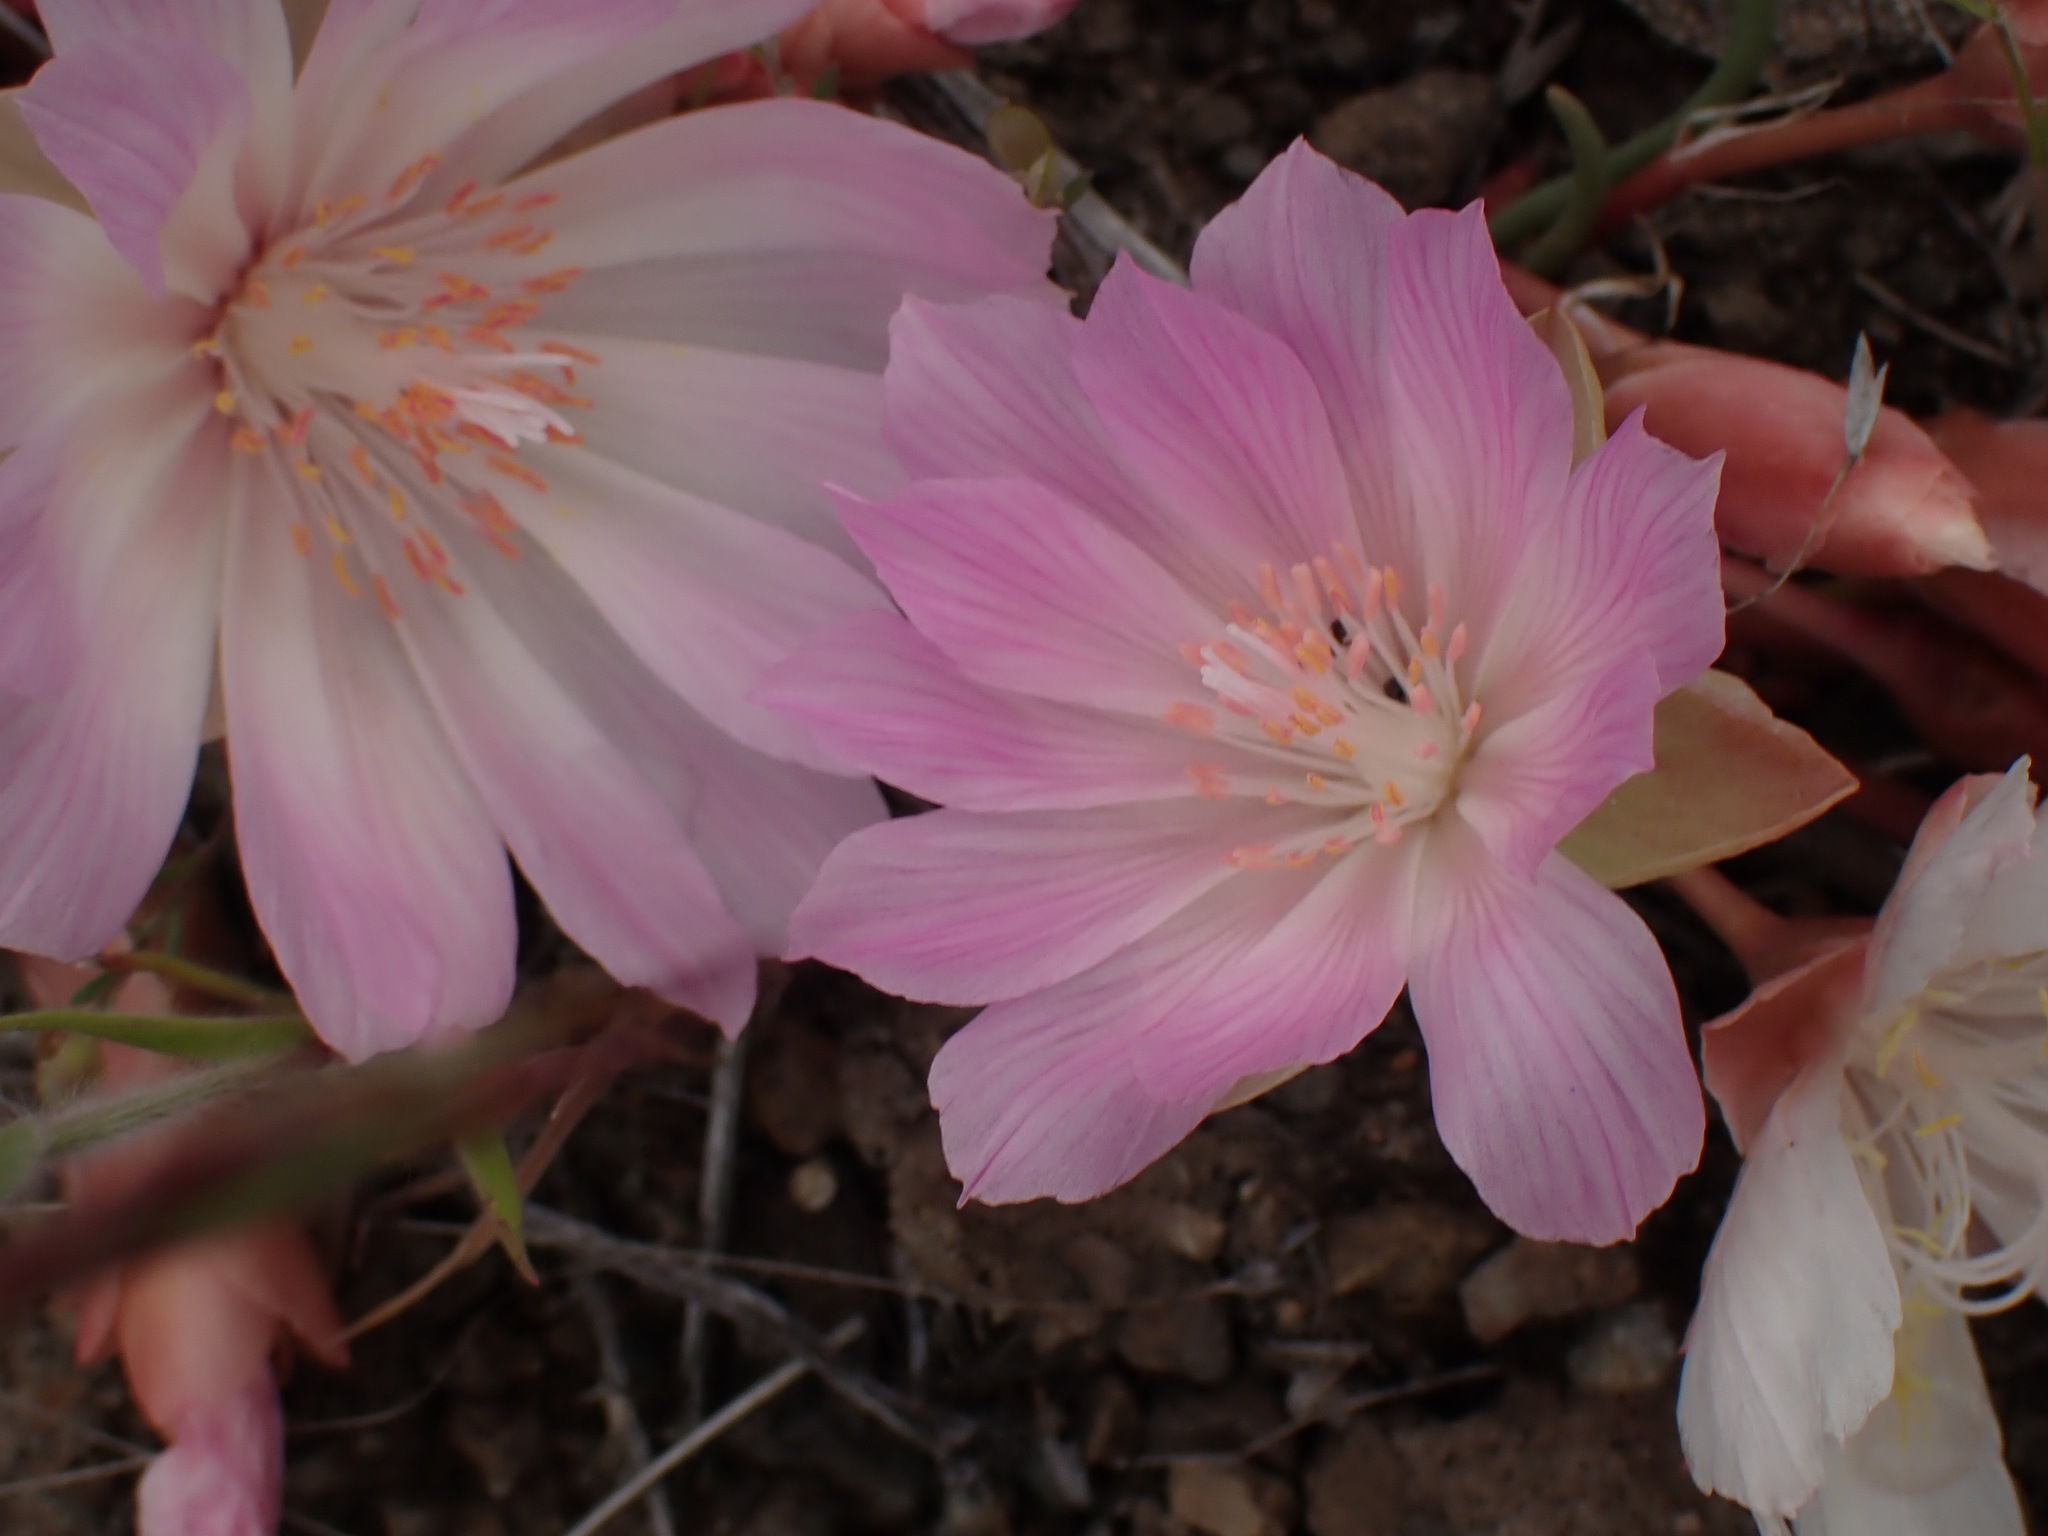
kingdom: Plantae
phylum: Tracheophyta
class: Magnoliopsida
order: Caryophyllales
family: Montiaceae
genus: Lewisia
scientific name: Lewisia rediviva
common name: Bitter-root
